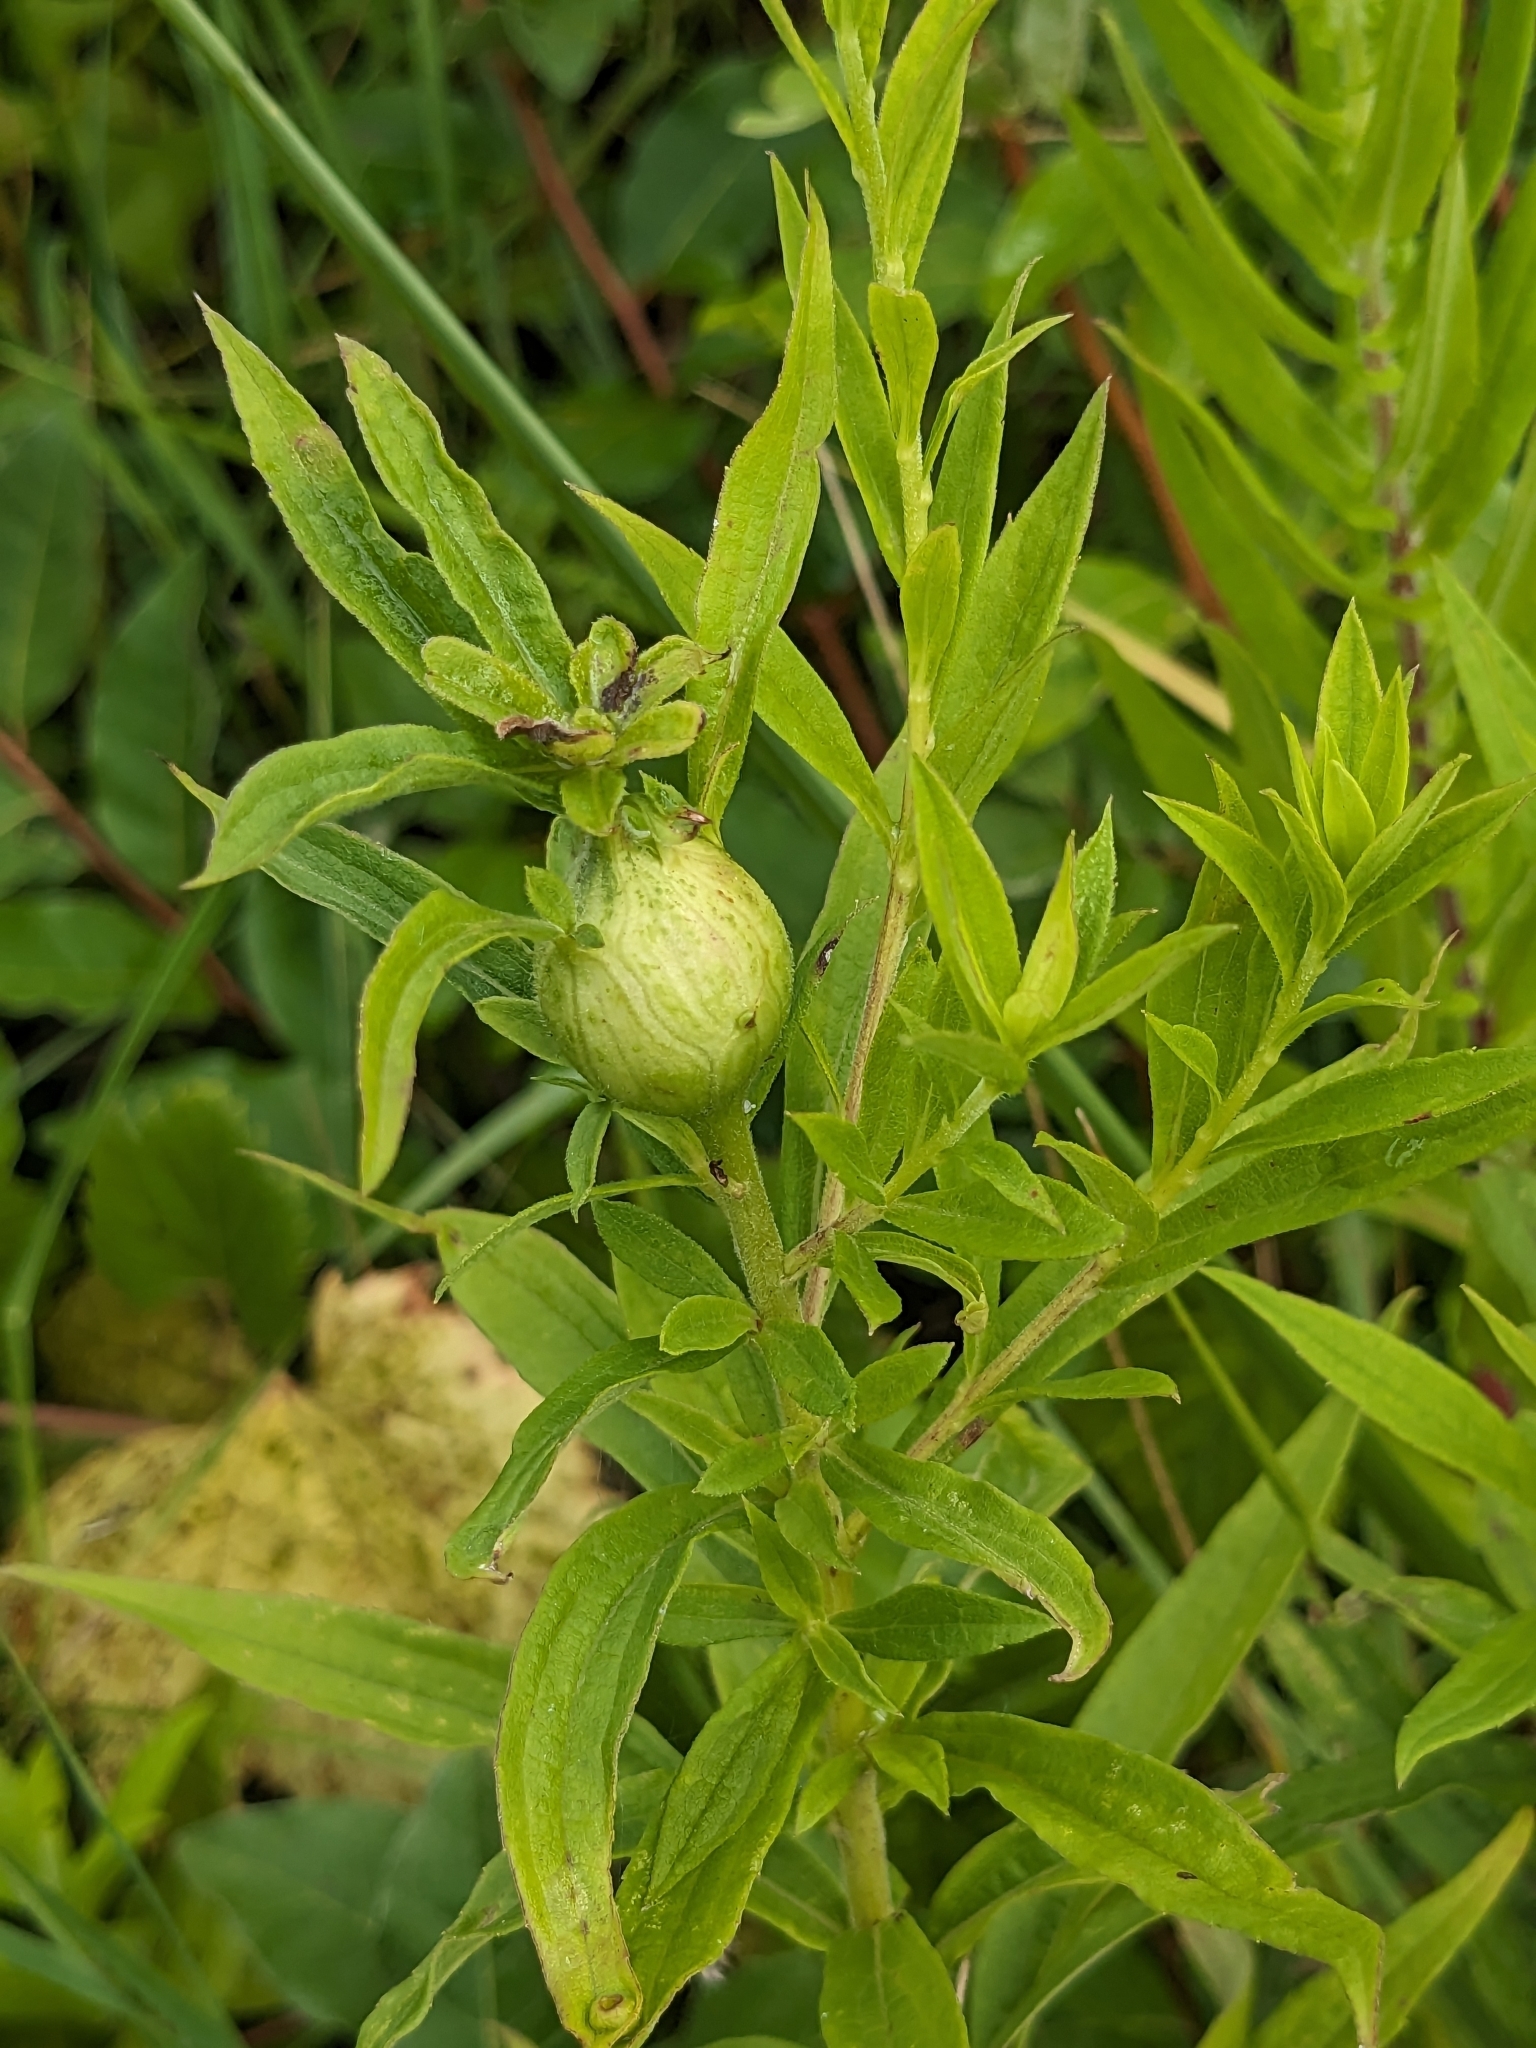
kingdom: Animalia
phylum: Arthropoda
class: Insecta
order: Diptera
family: Tephritidae
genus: Eurosta
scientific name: Eurosta solidaginis
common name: Goldenrod gall fly
